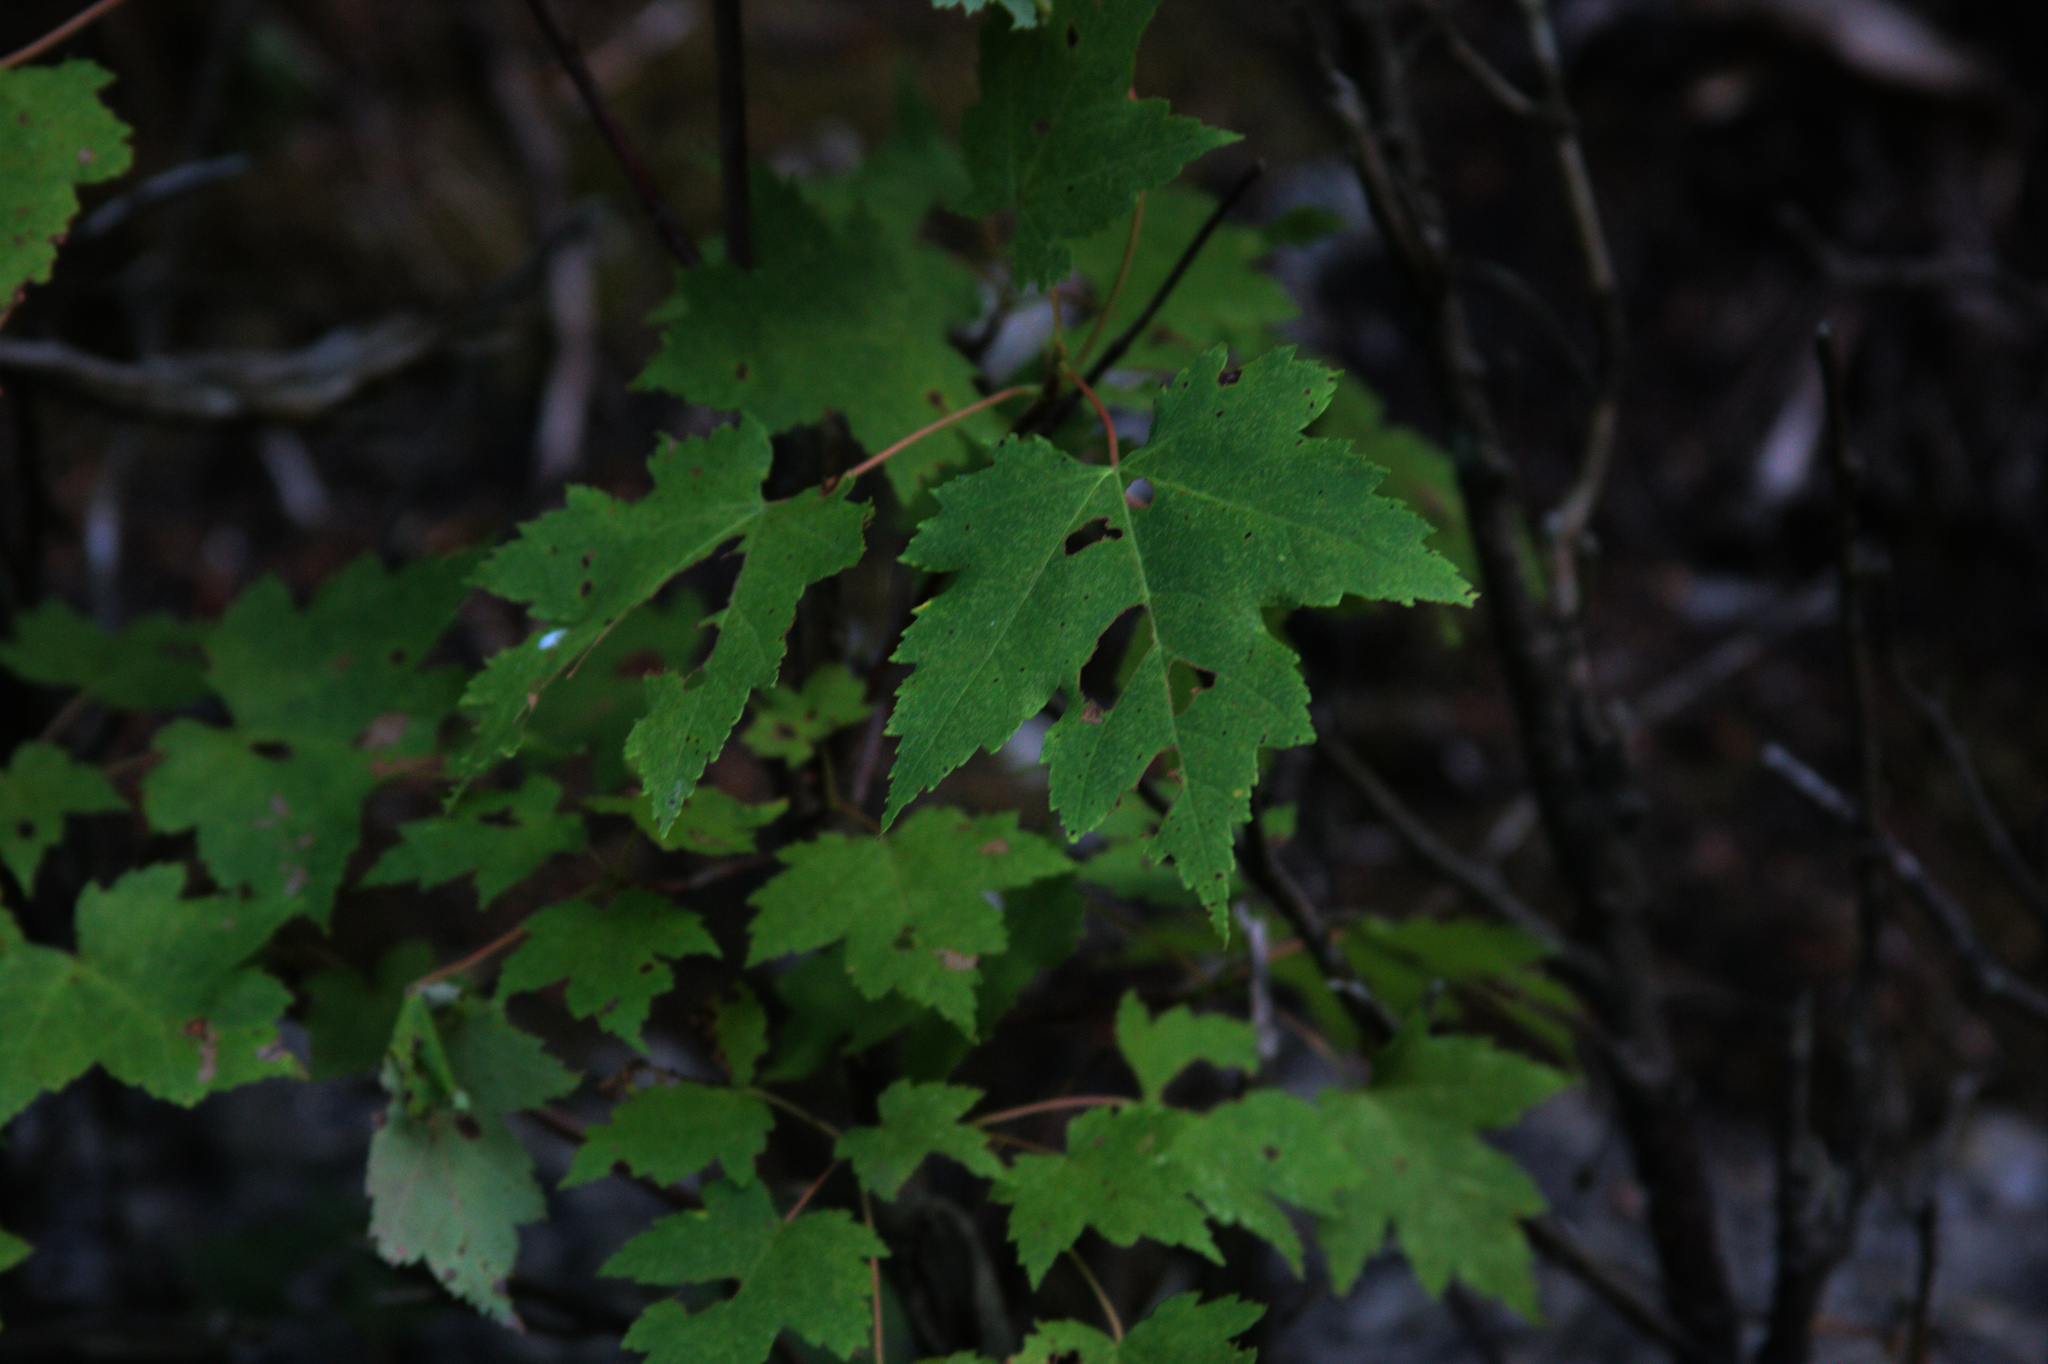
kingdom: Plantae
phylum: Tracheophyta
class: Magnoliopsida
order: Sapindales
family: Sapindaceae
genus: Acer
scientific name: Acer rubrum
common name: Red maple
